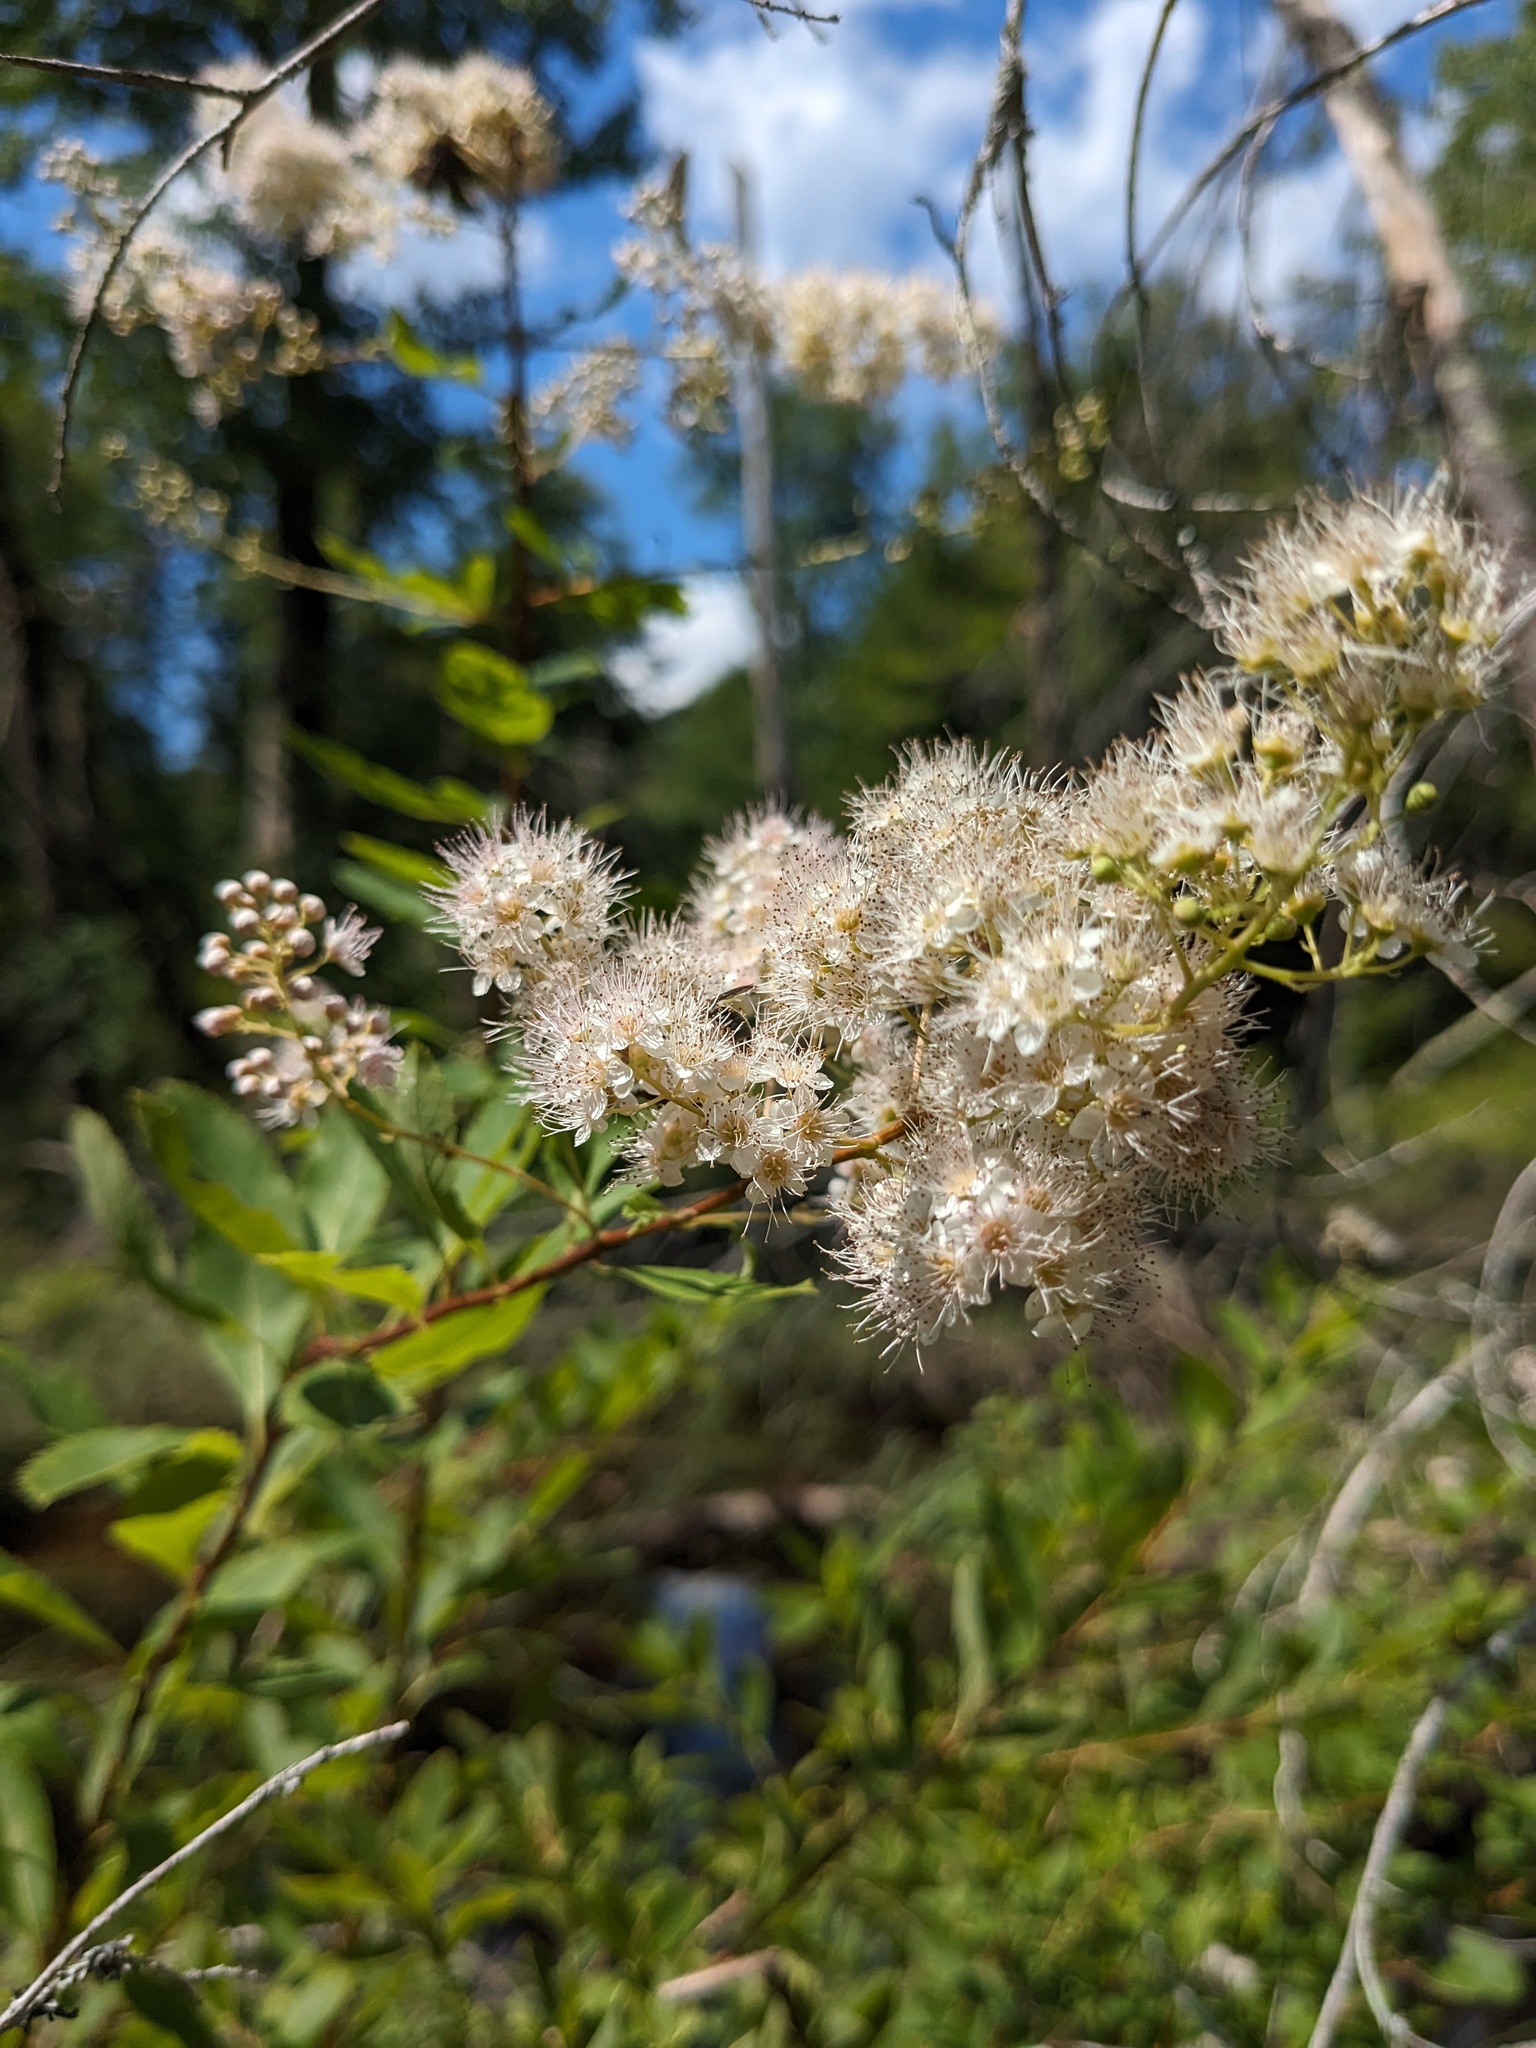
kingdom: Plantae
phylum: Tracheophyta
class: Magnoliopsida
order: Rosales
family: Rosaceae
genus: Spiraea
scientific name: Spiraea alba
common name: Pale bridewort
